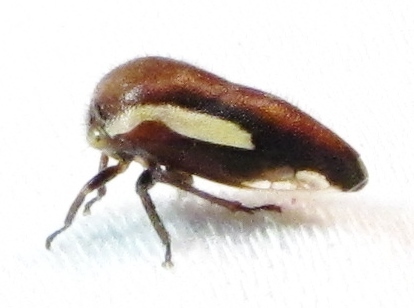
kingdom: Animalia
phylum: Arthropoda
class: Insecta
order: Hemiptera
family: Membracidae
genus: Ophiderma
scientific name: Ophiderma flavicephala
